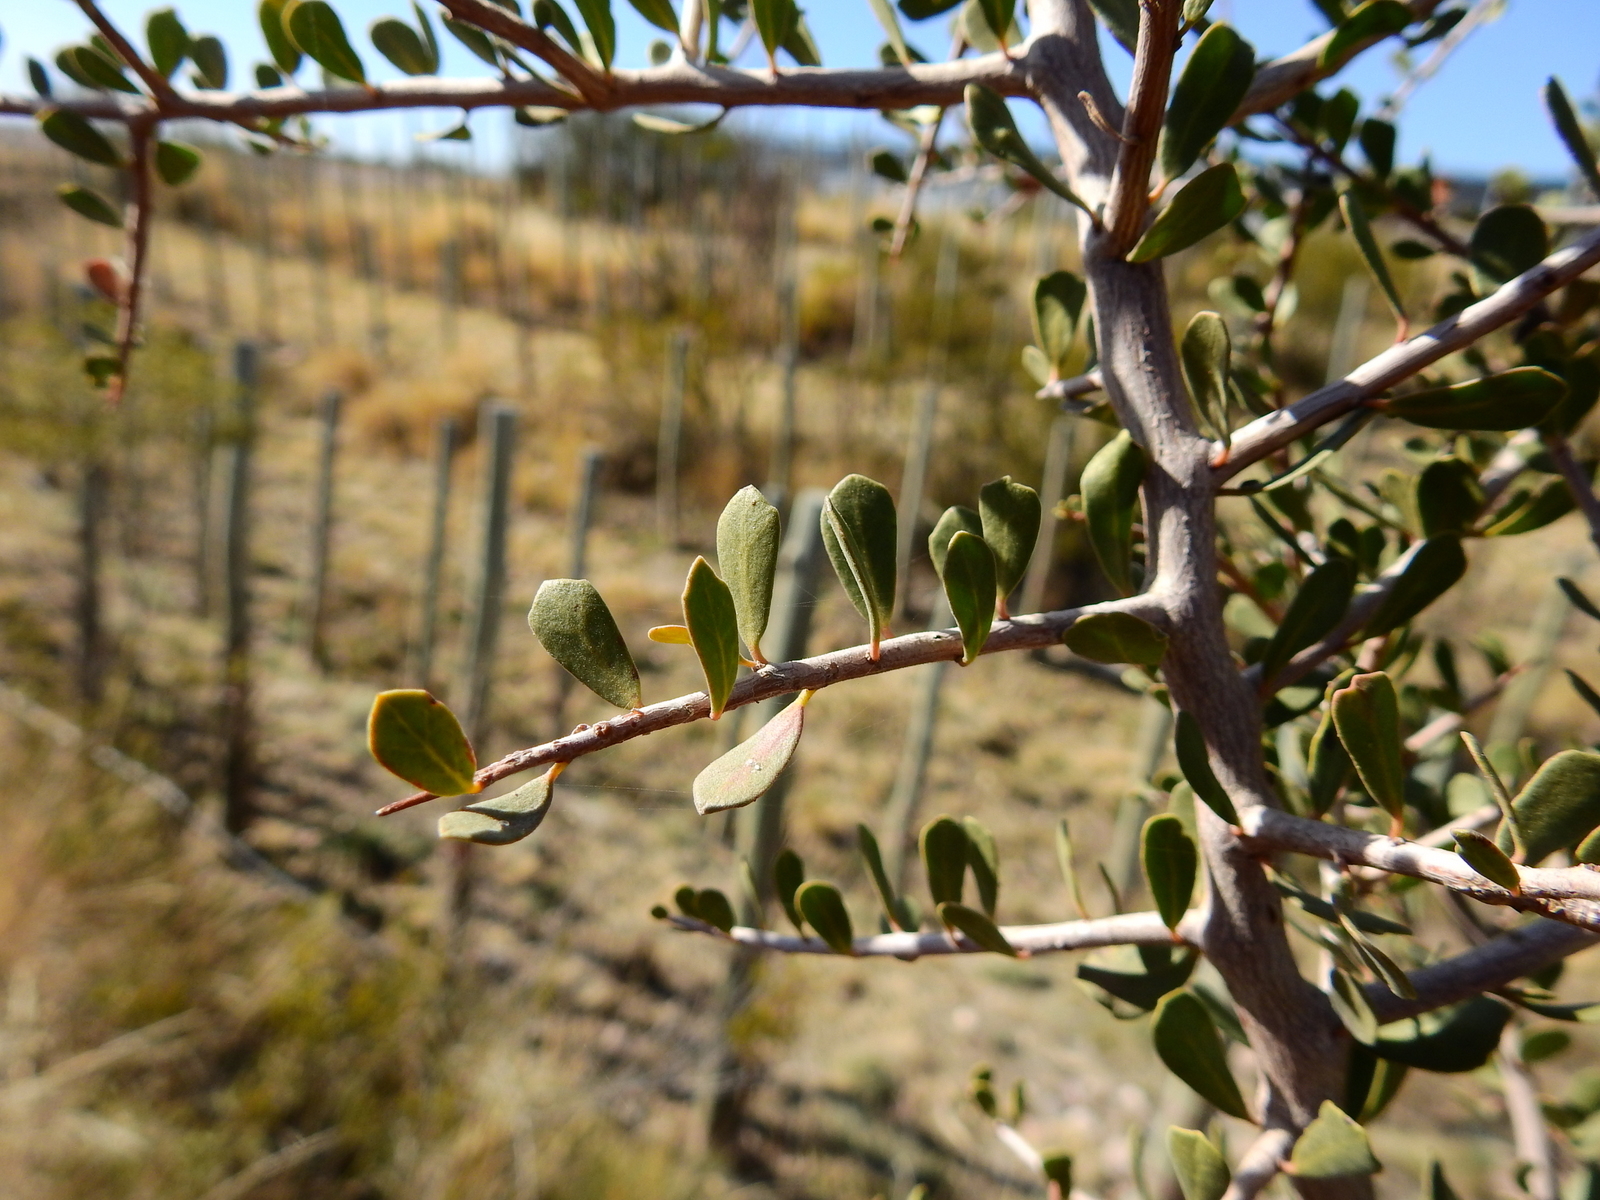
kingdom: Plantae
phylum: Tracheophyta
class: Magnoliopsida
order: Sapindales
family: Anacardiaceae
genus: Schinus
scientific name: Schinus fasciculata
